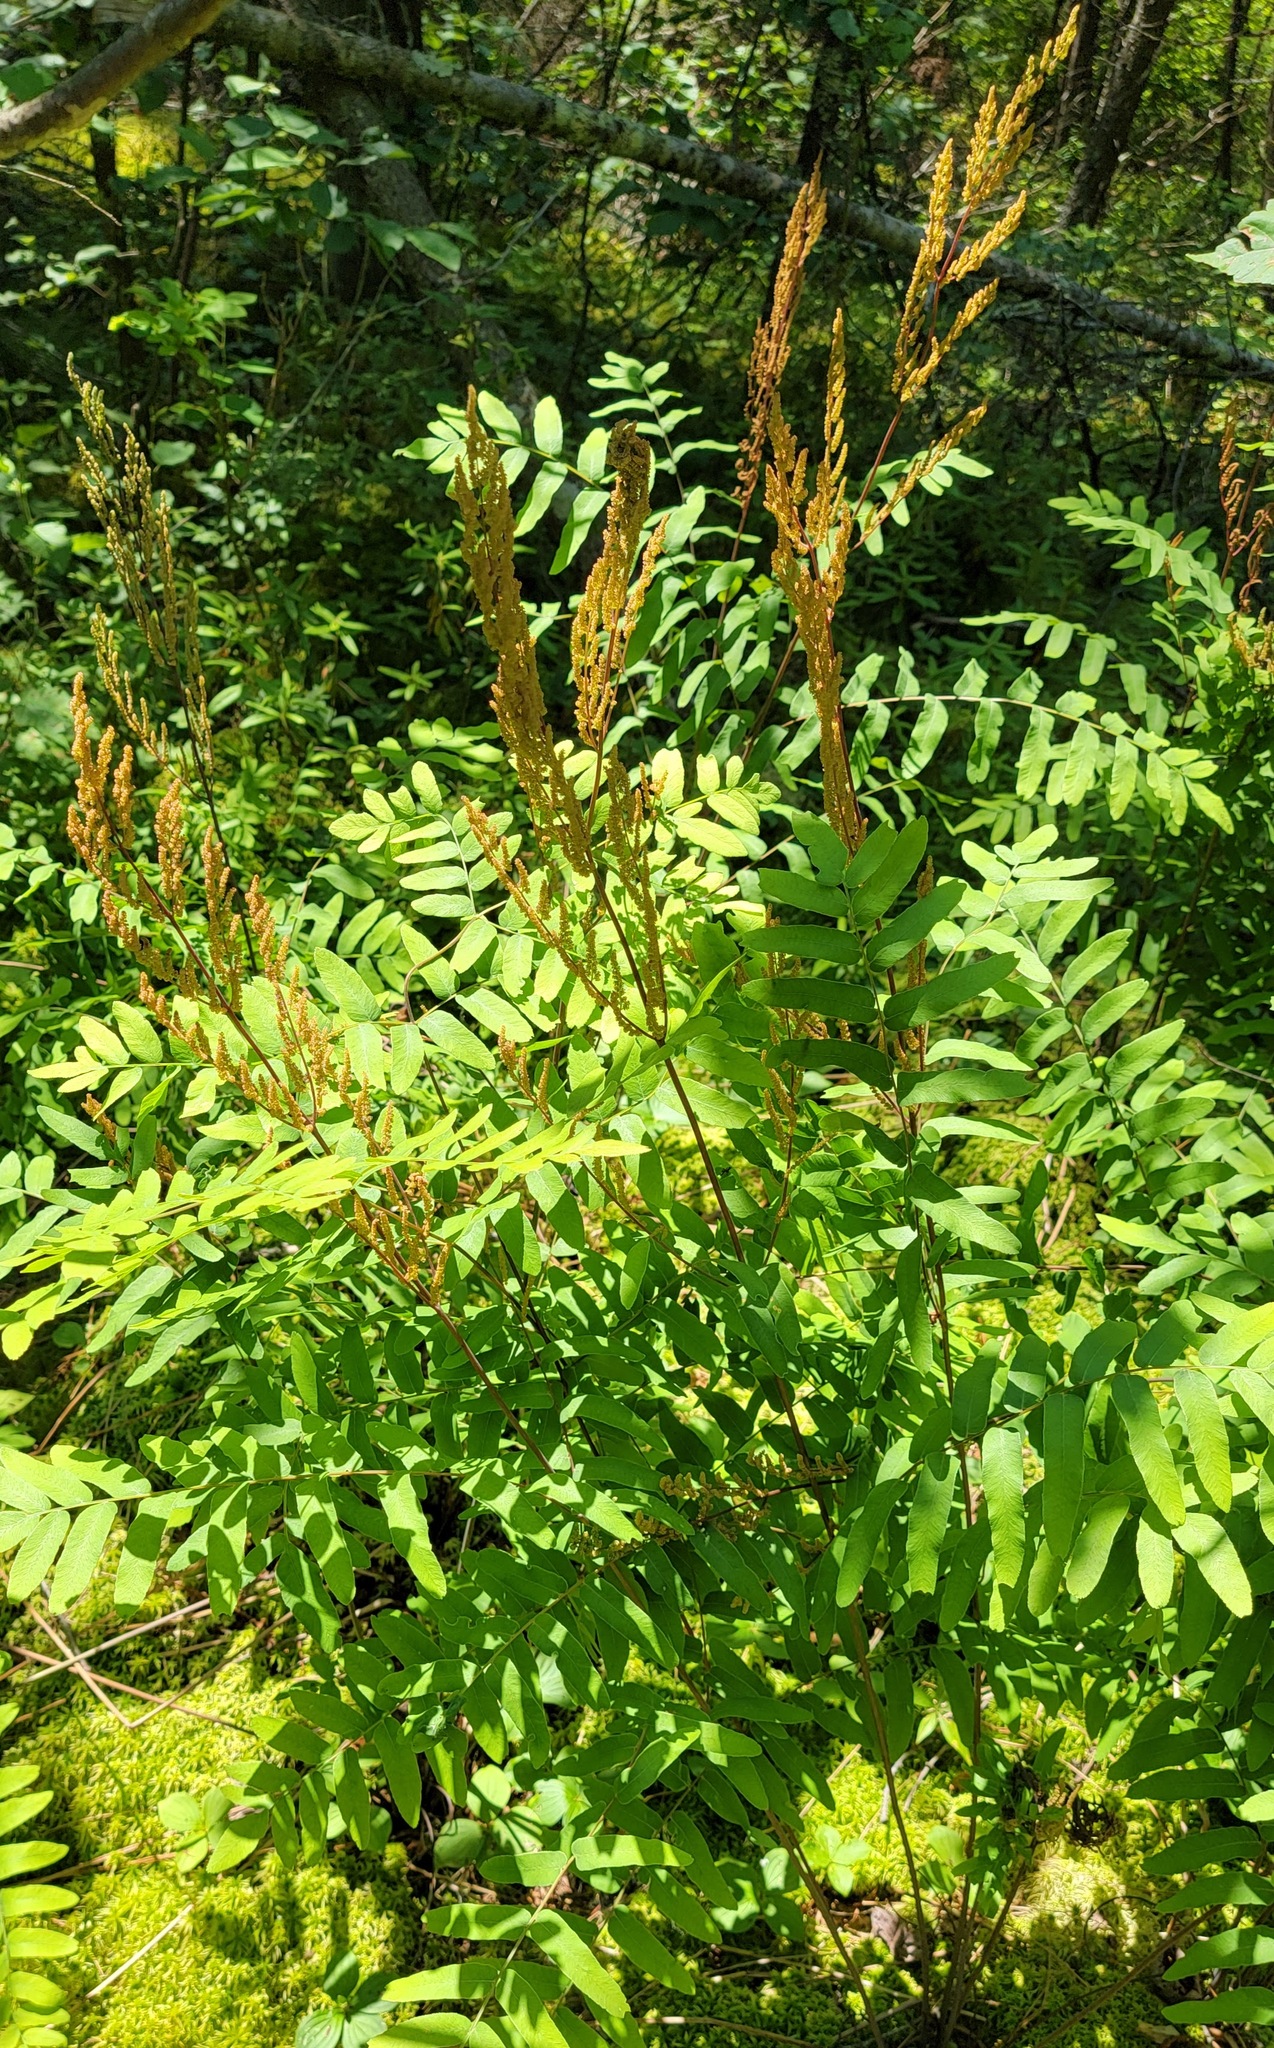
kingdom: Plantae
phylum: Tracheophyta
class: Polypodiopsida
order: Osmundales
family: Osmundaceae
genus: Osmunda
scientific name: Osmunda spectabilis
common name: American royal fern
